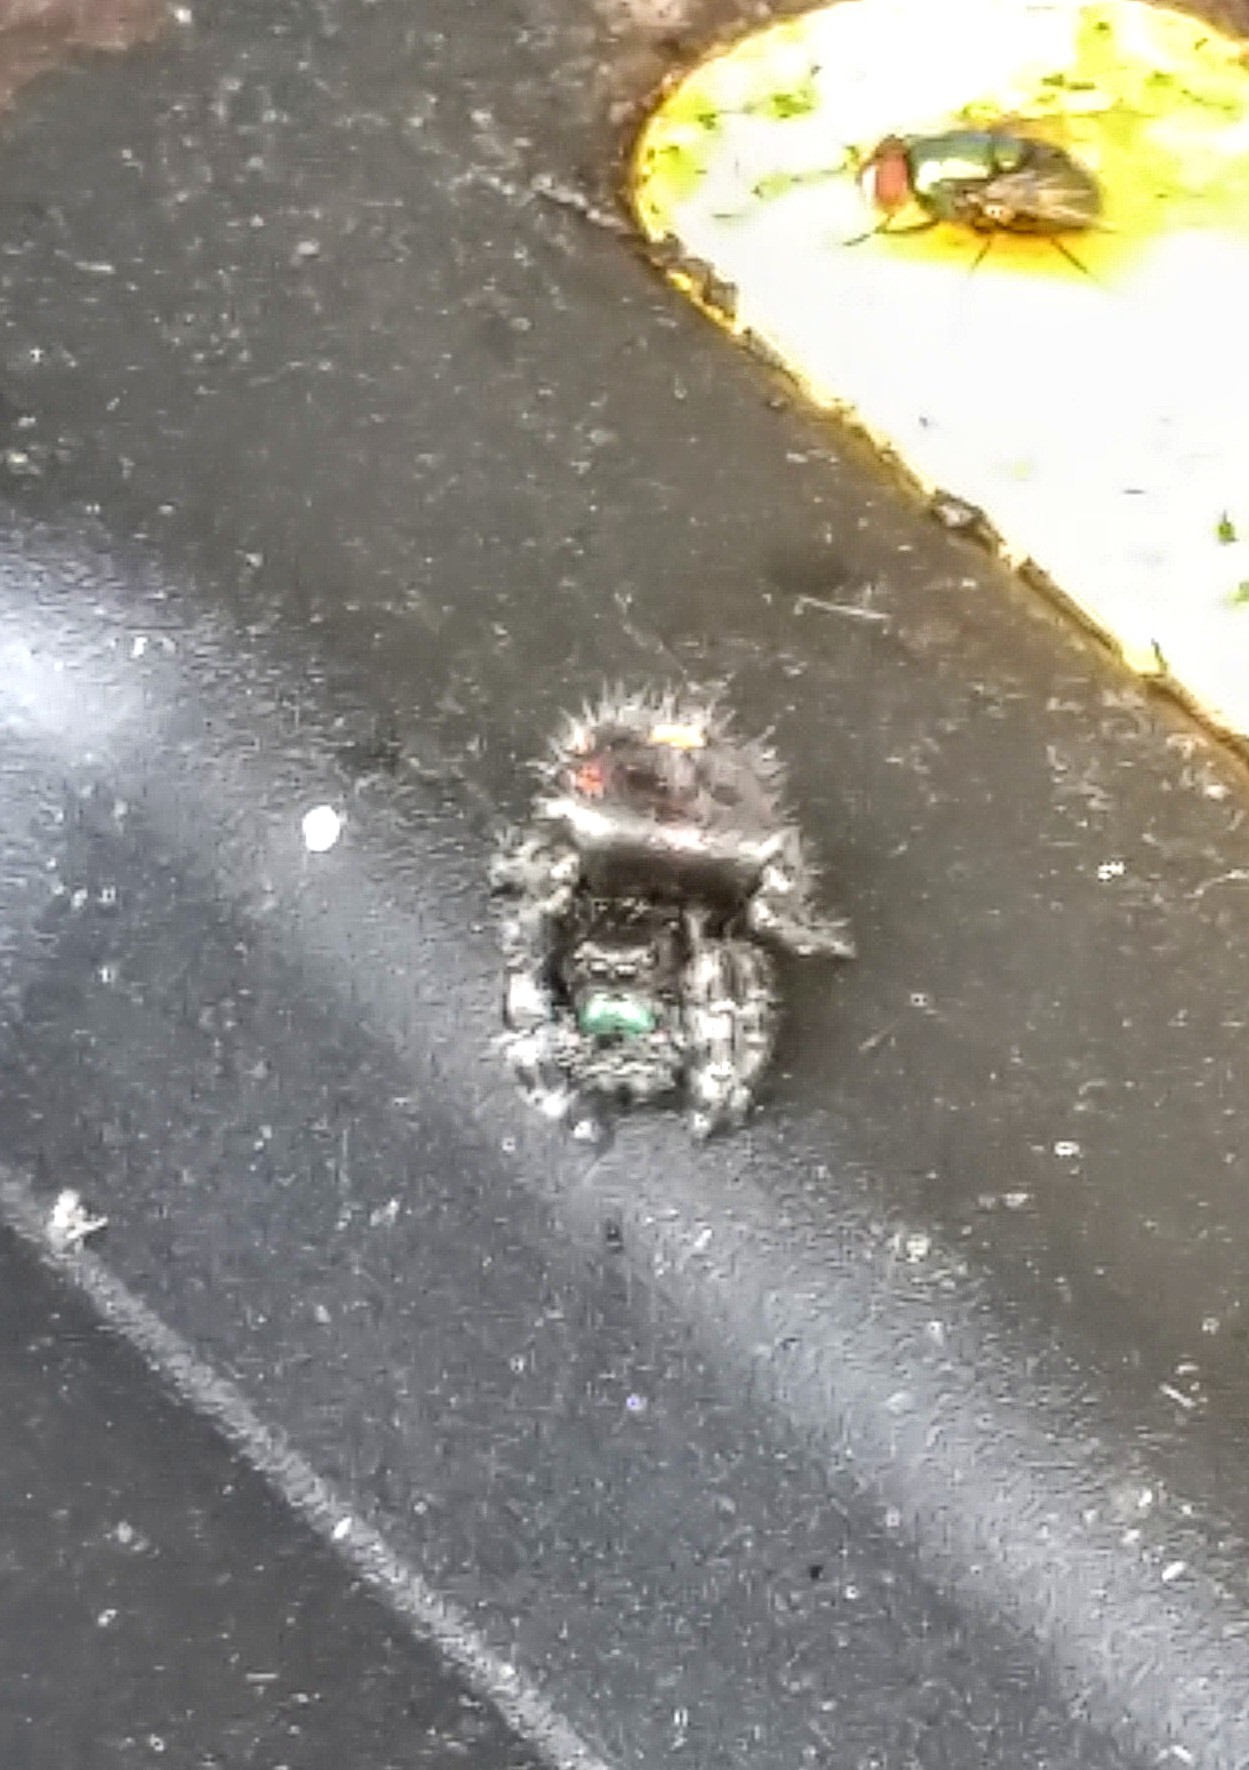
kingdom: Animalia
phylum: Arthropoda
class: Arachnida
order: Araneae
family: Salticidae
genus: Phidippus
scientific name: Phidippus audax
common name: Bold jumper
